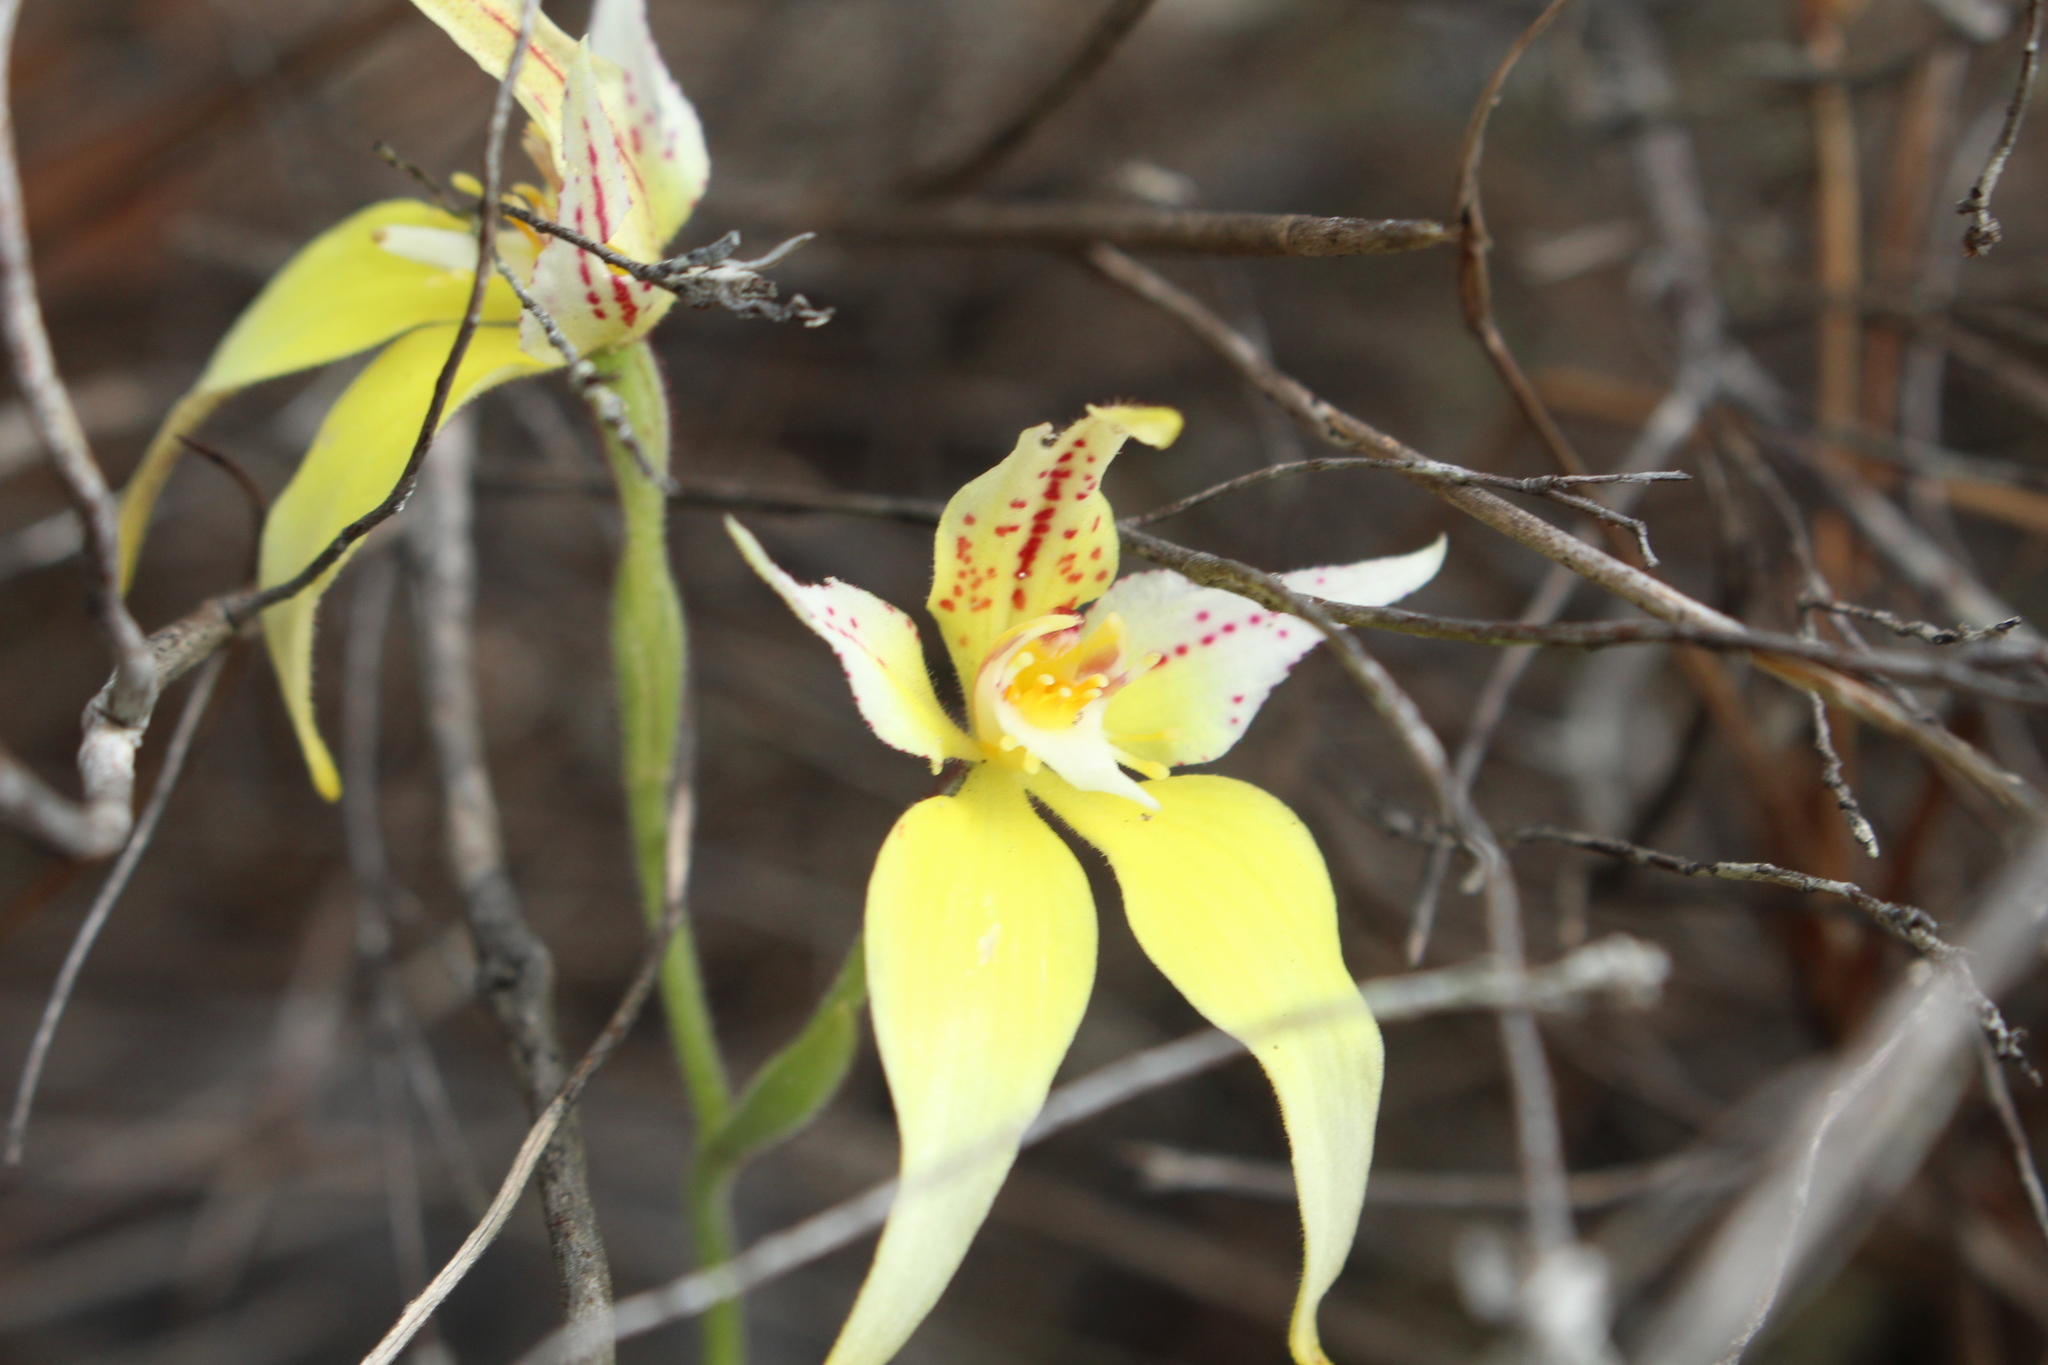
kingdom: Plantae
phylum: Tracheophyta
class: Liliopsida
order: Asparagales
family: Orchidaceae
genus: Caladenia
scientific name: Caladenia flava
